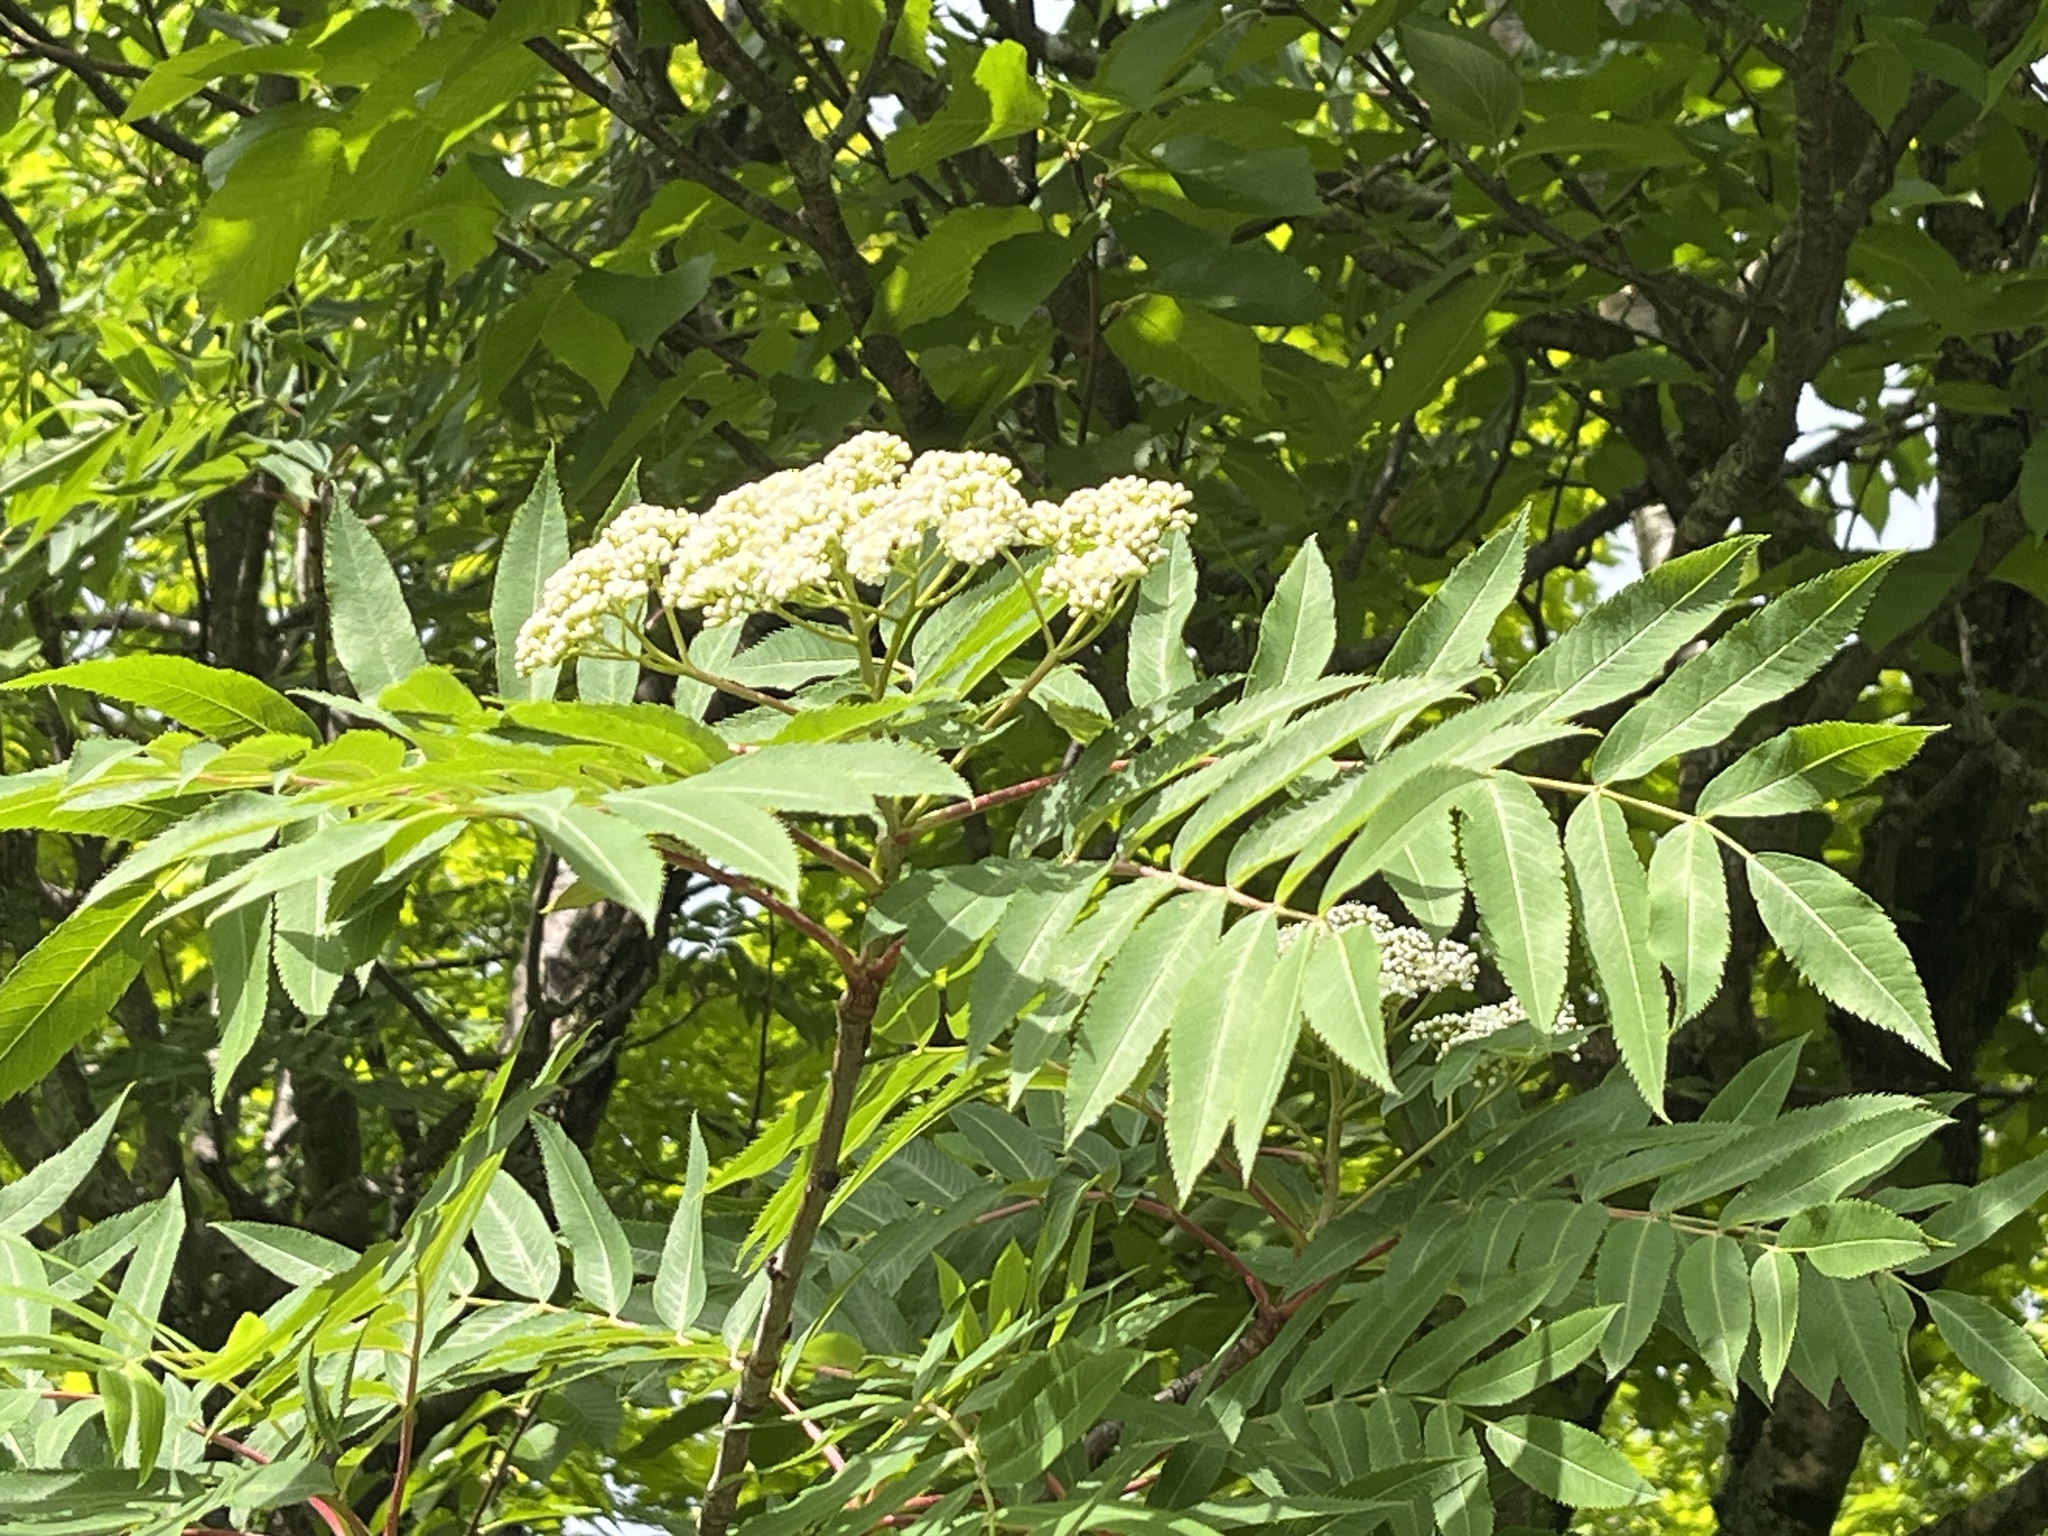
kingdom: Plantae
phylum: Tracheophyta
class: Magnoliopsida
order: Rosales
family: Rosaceae
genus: Sorbus
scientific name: Sorbus americana
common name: American mountain-ash
